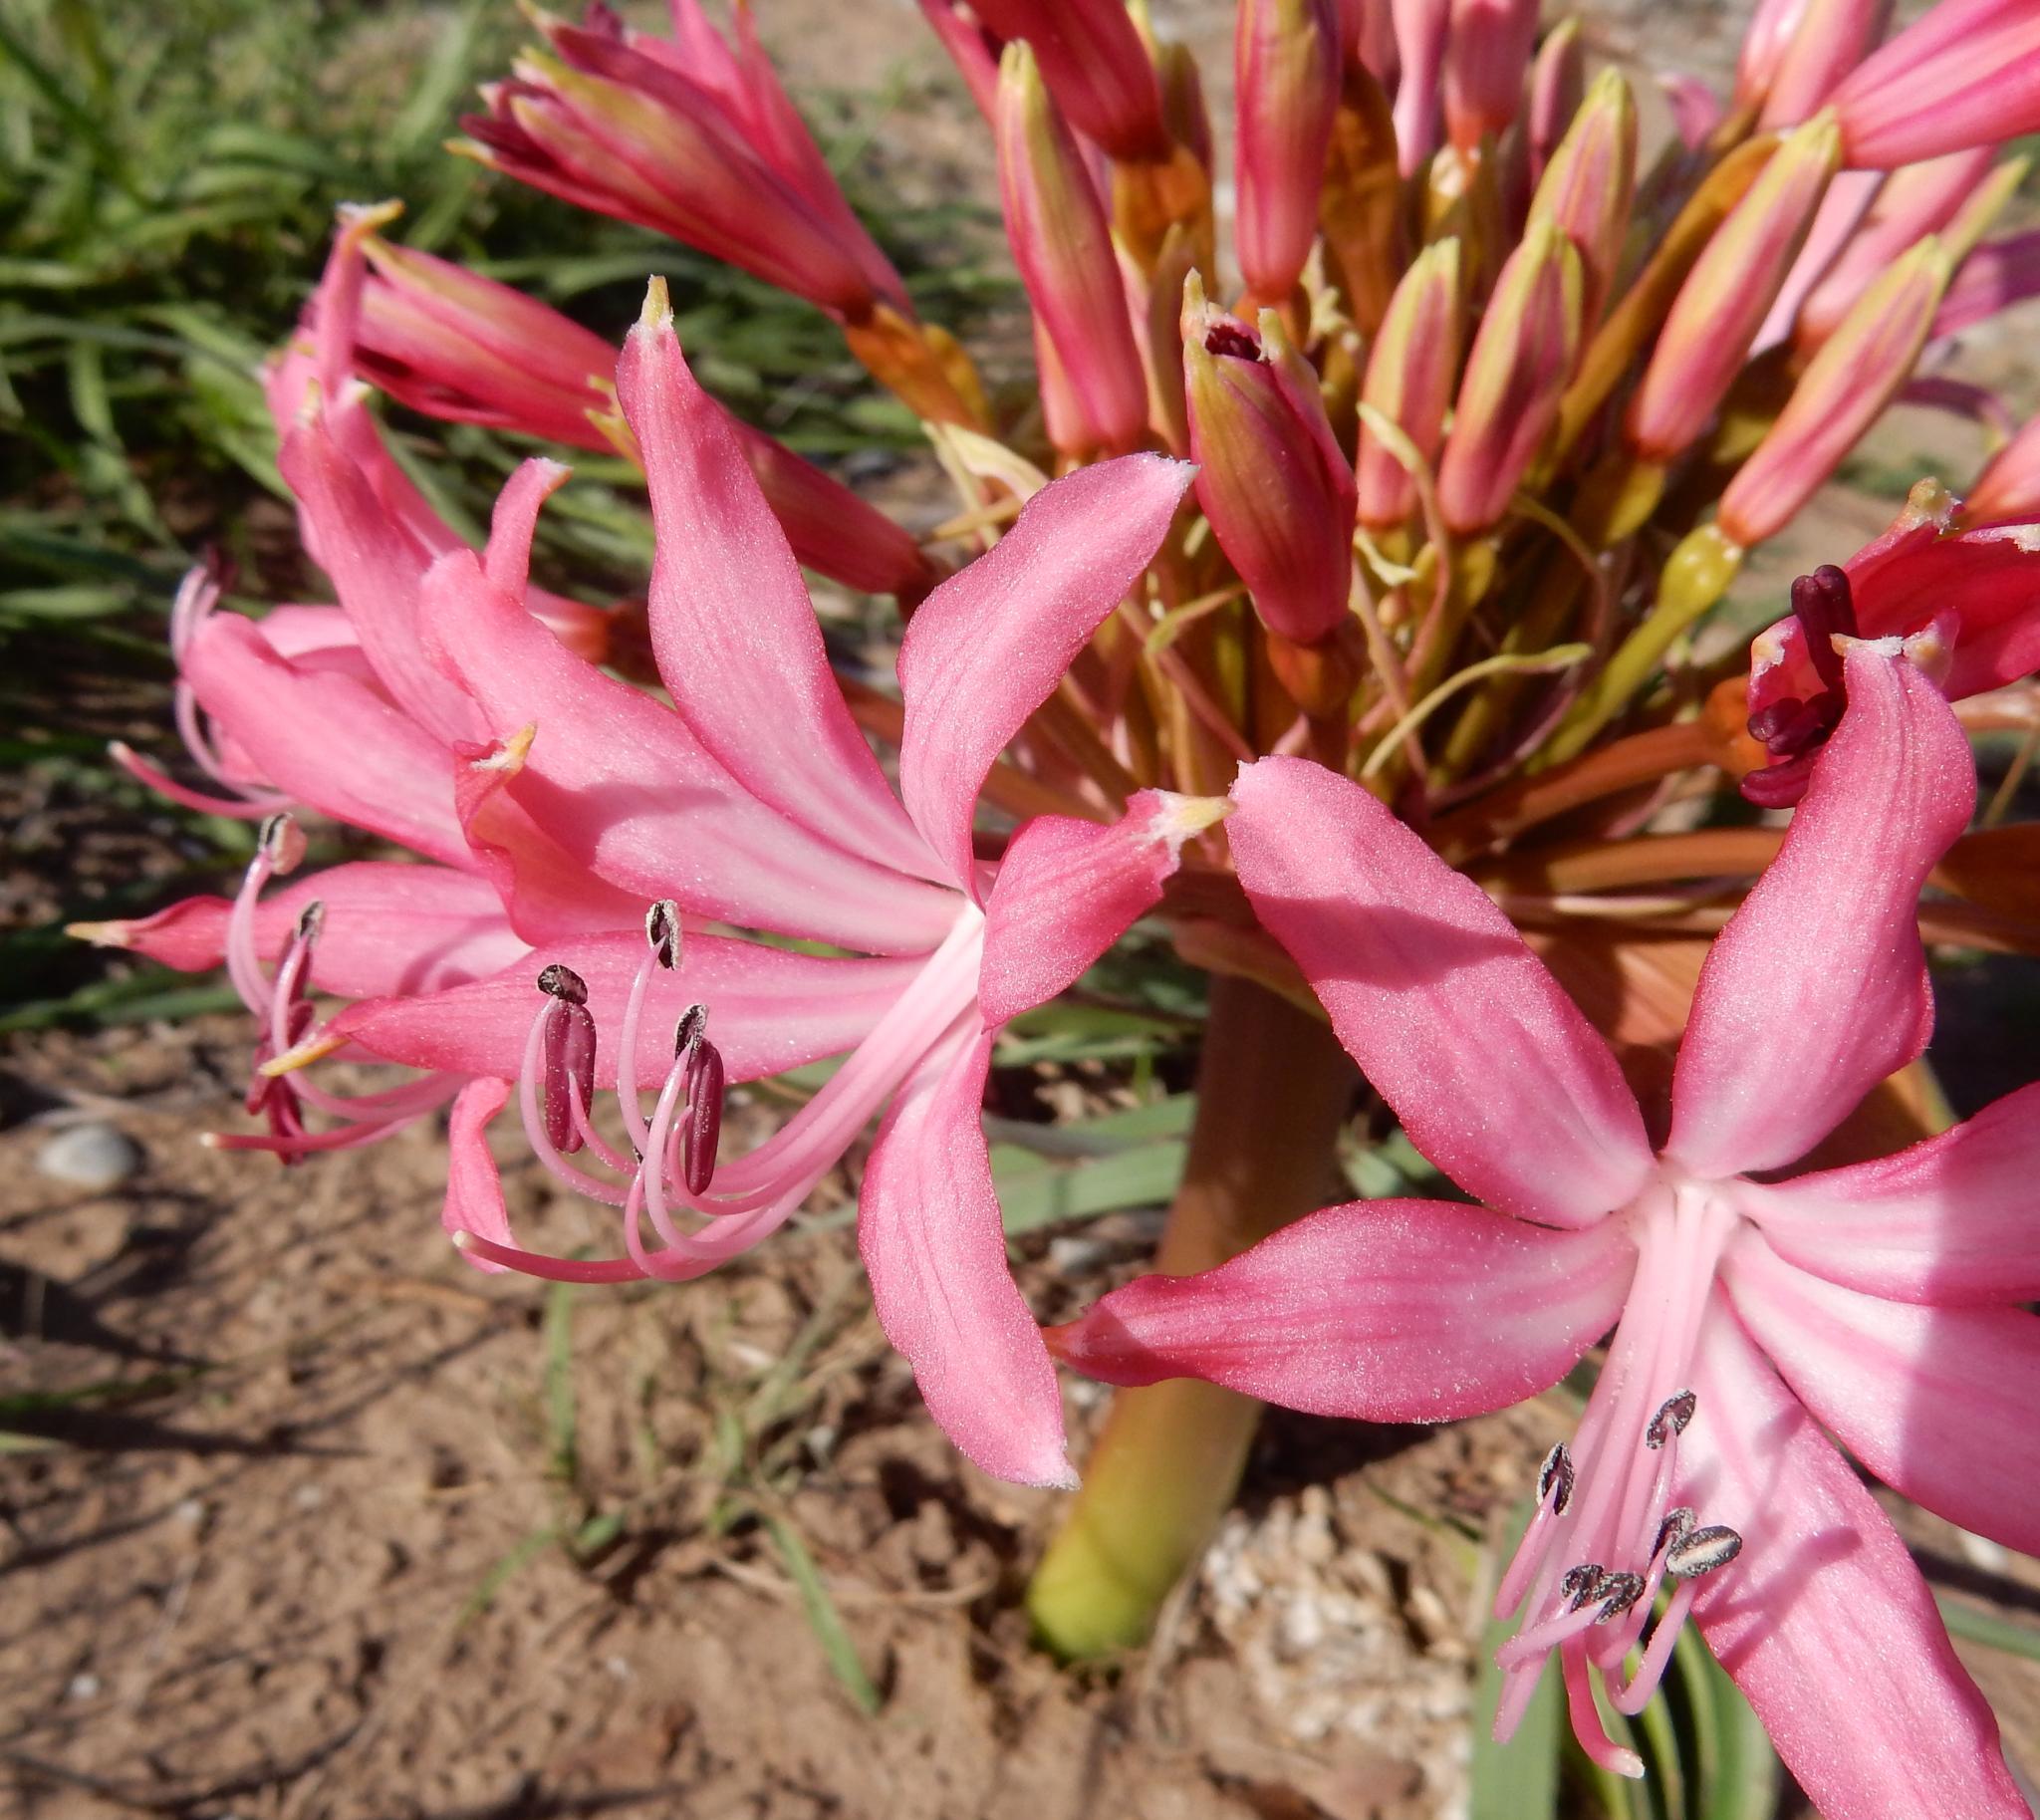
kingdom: Plantae
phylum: Tracheophyta
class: Liliopsida
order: Asparagales
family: Amaryllidaceae
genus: Brunsvigia
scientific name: Brunsvigia gregaria
